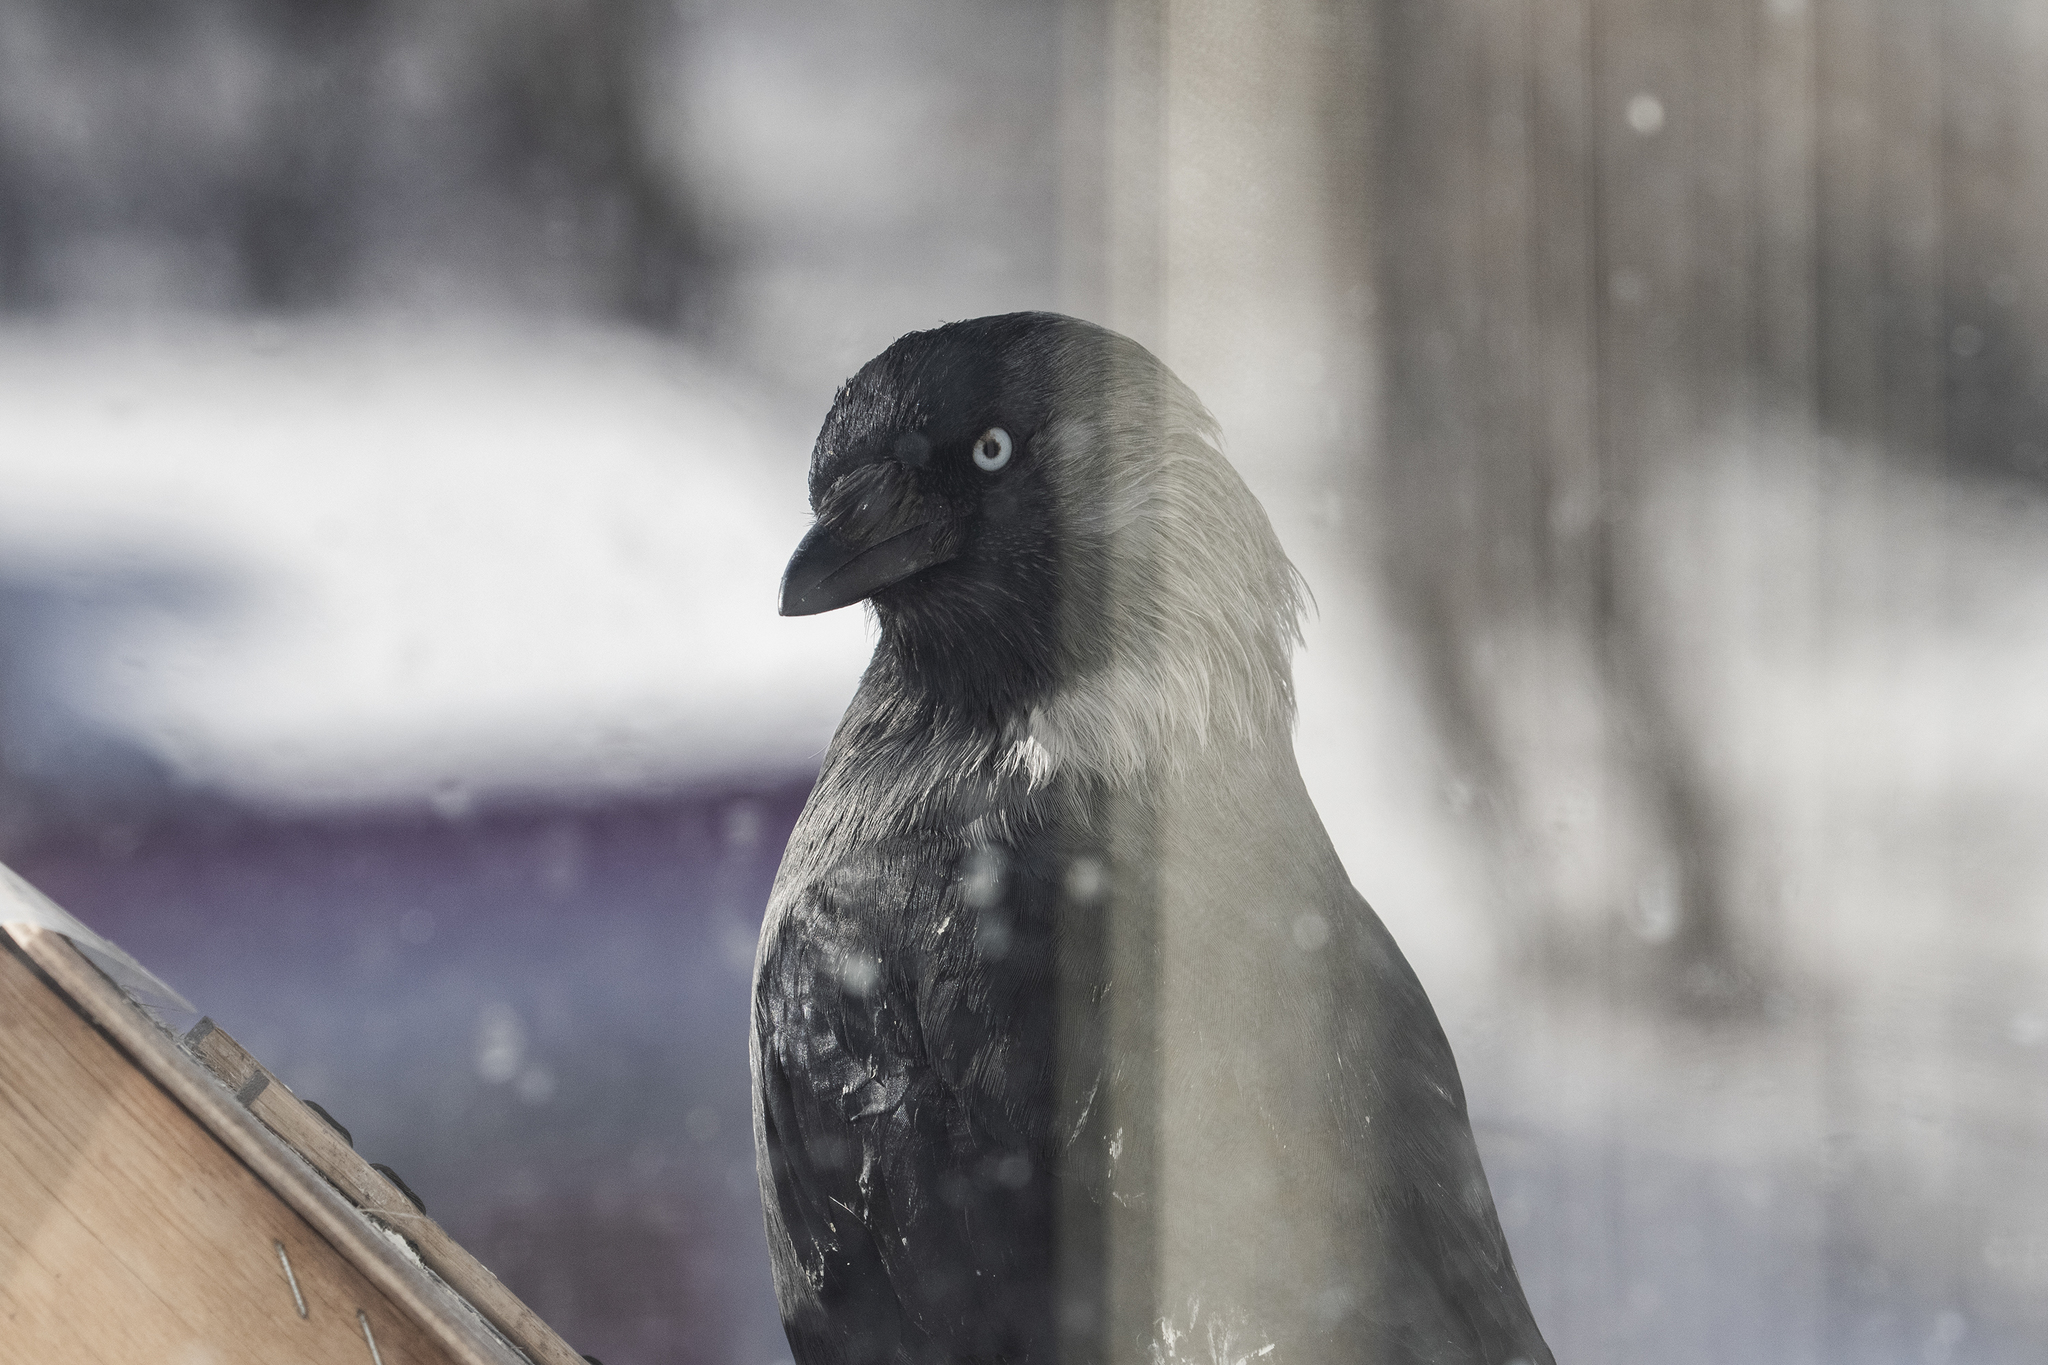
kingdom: Animalia
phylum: Chordata
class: Aves
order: Passeriformes
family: Corvidae
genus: Coloeus
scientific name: Coloeus monedula
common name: Western jackdaw
